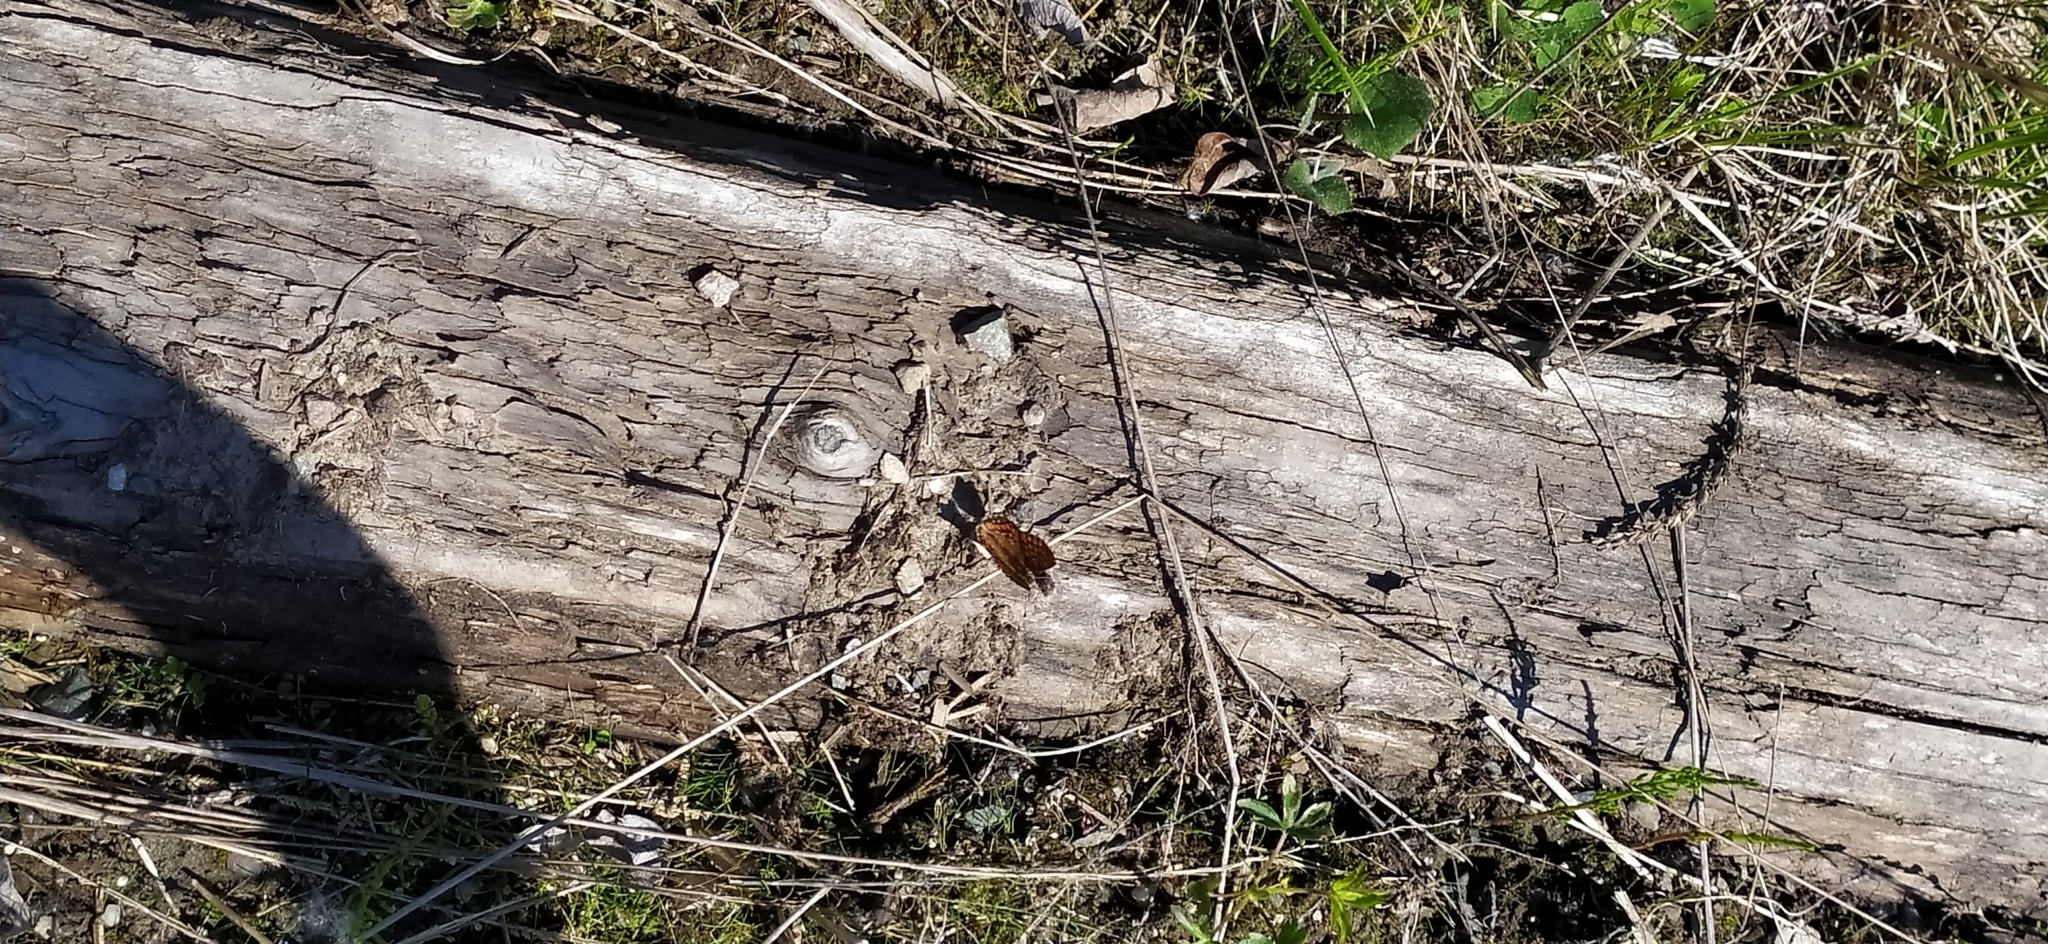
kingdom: Animalia
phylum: Arthropoda
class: Insecta
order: Lepidoptera
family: Nymphalidae
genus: Hypodryas
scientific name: Hypodryas intermedia
